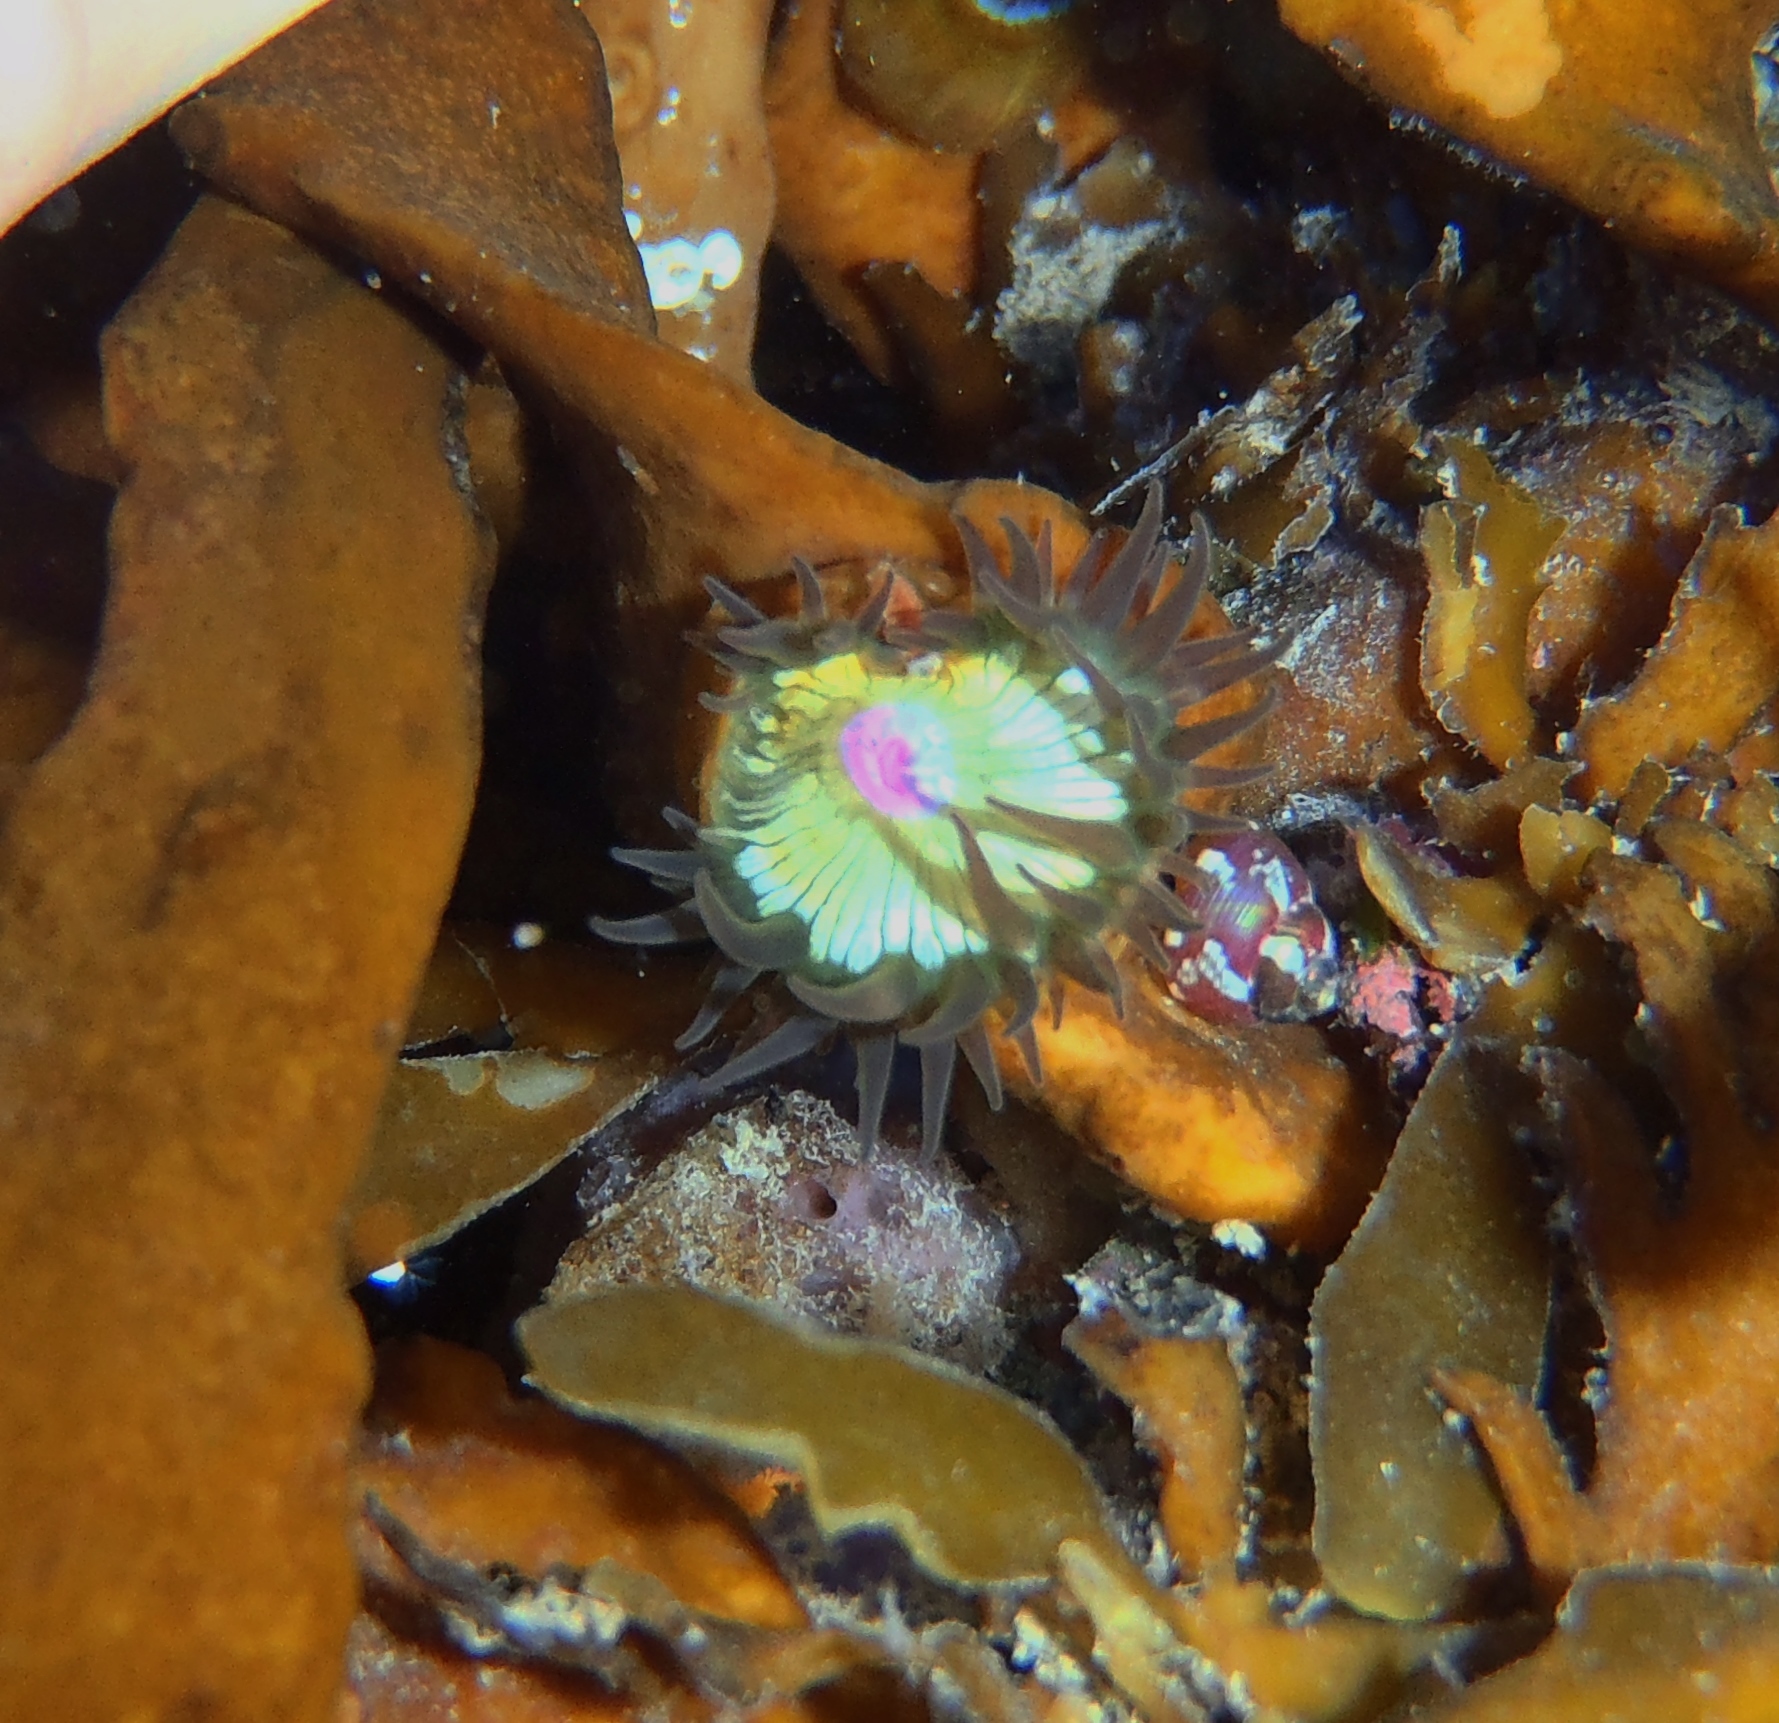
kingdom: Animalia
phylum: Cnidaria
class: Anthozoa
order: Actiniaria
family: Hormathiidae
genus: Handactis
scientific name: Handactis nutrix
